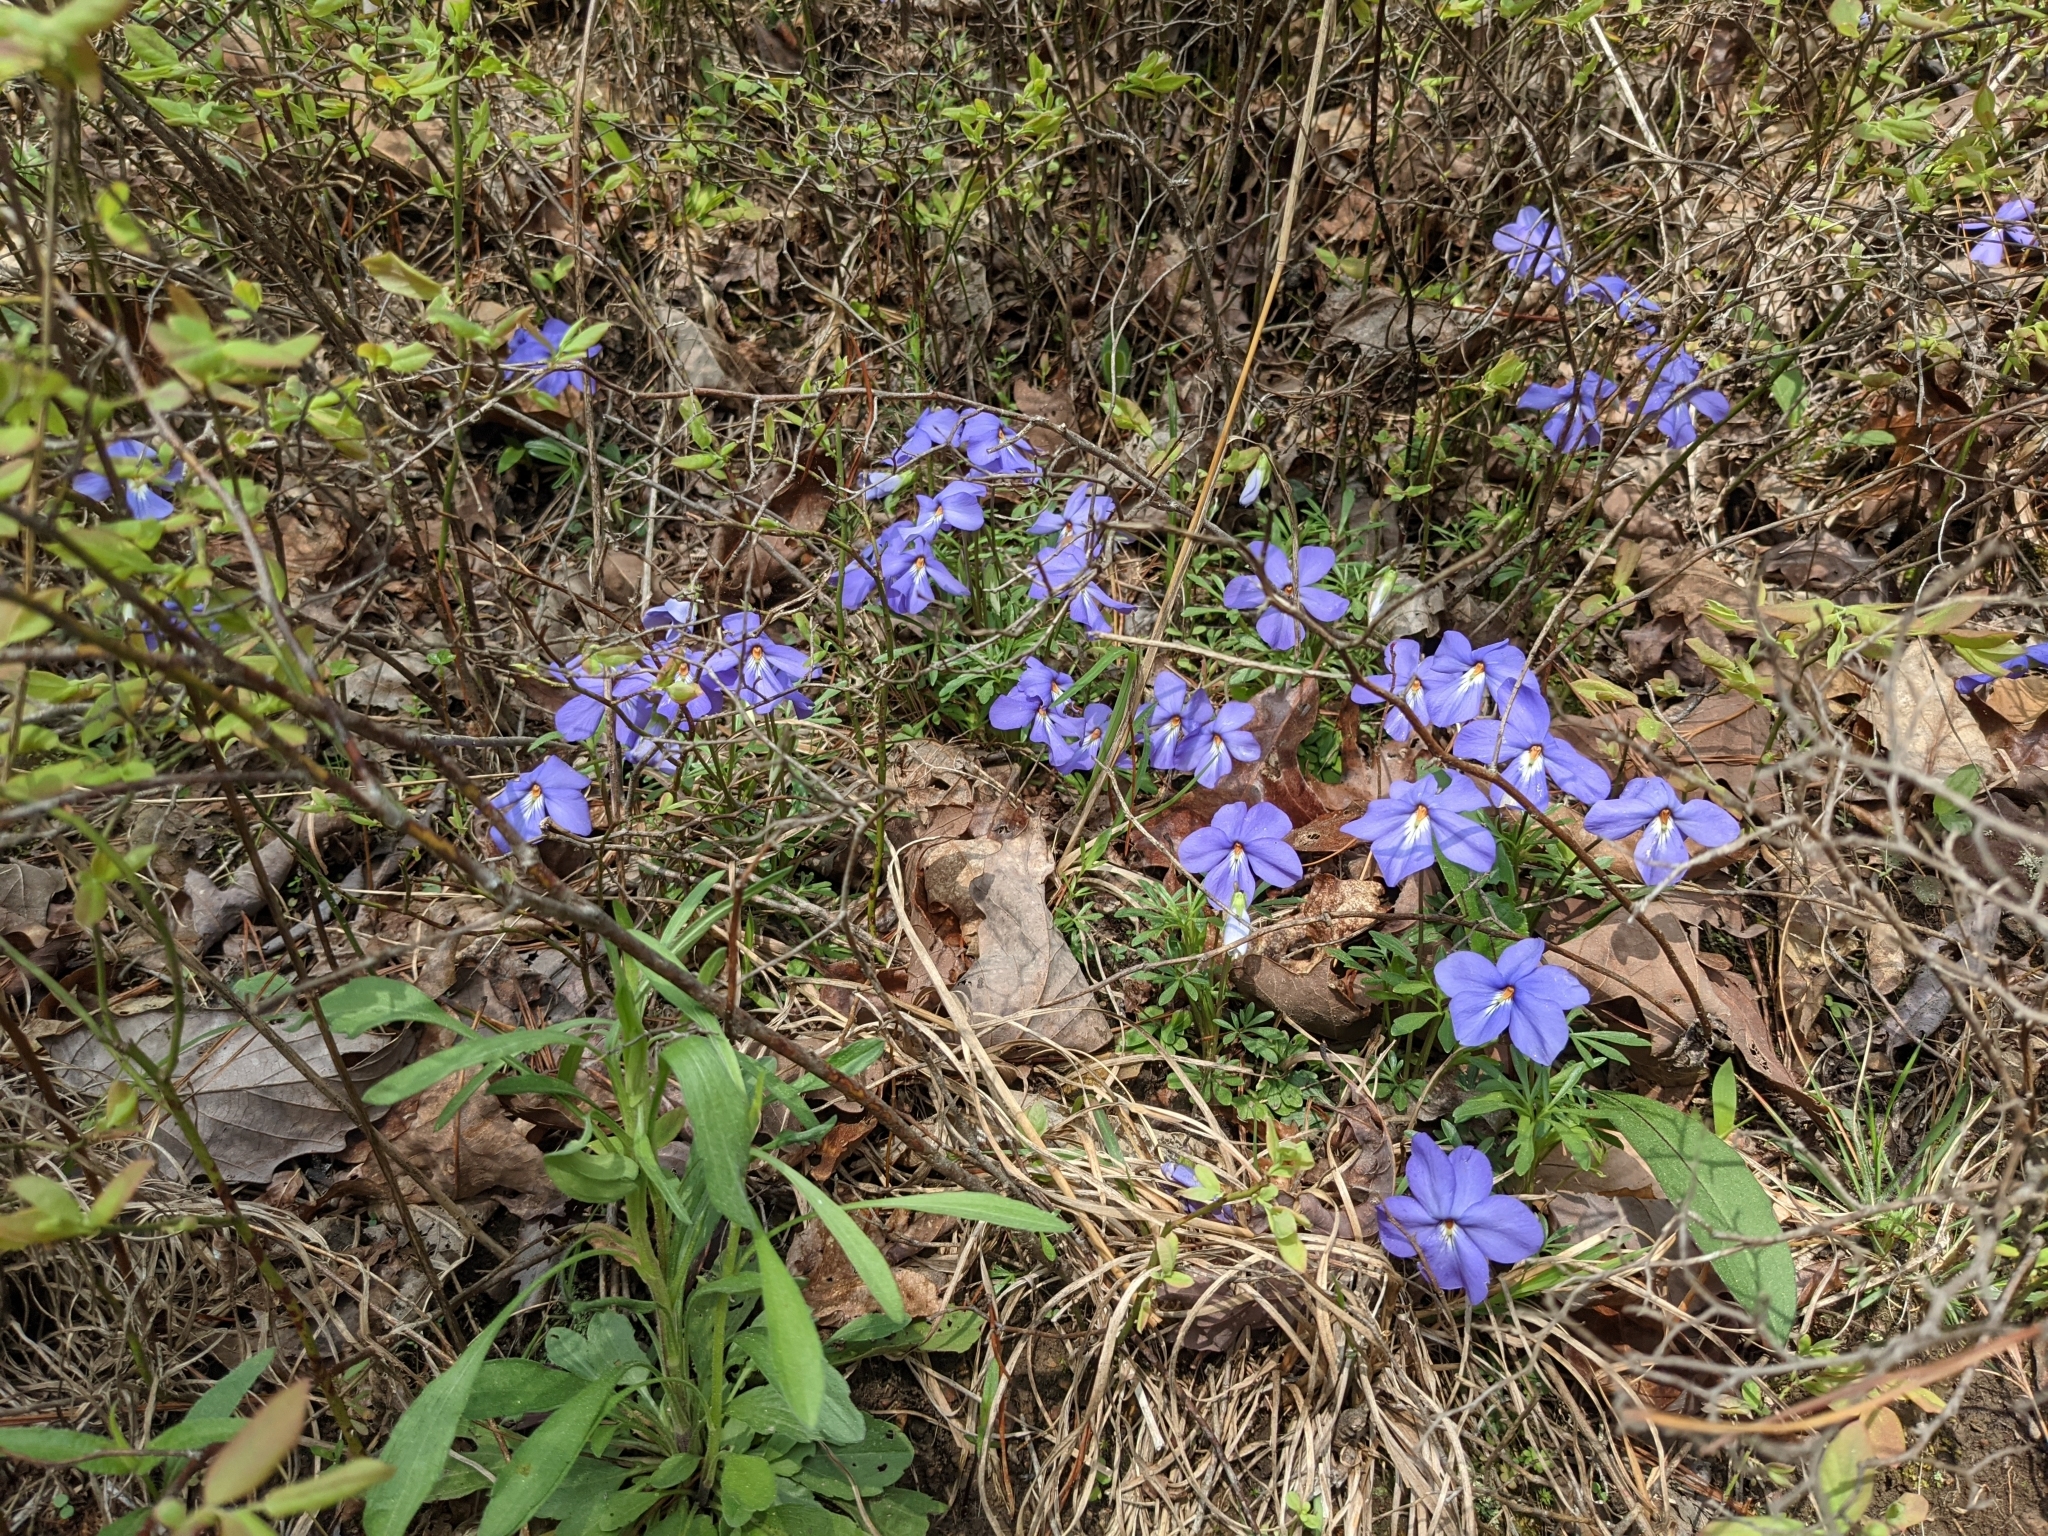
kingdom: Plantae
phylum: Tracheophyta
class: Magnoliopsida
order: Malpighiales
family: Violaceae
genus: Viola
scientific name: Viola pedata
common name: Pansy violet
